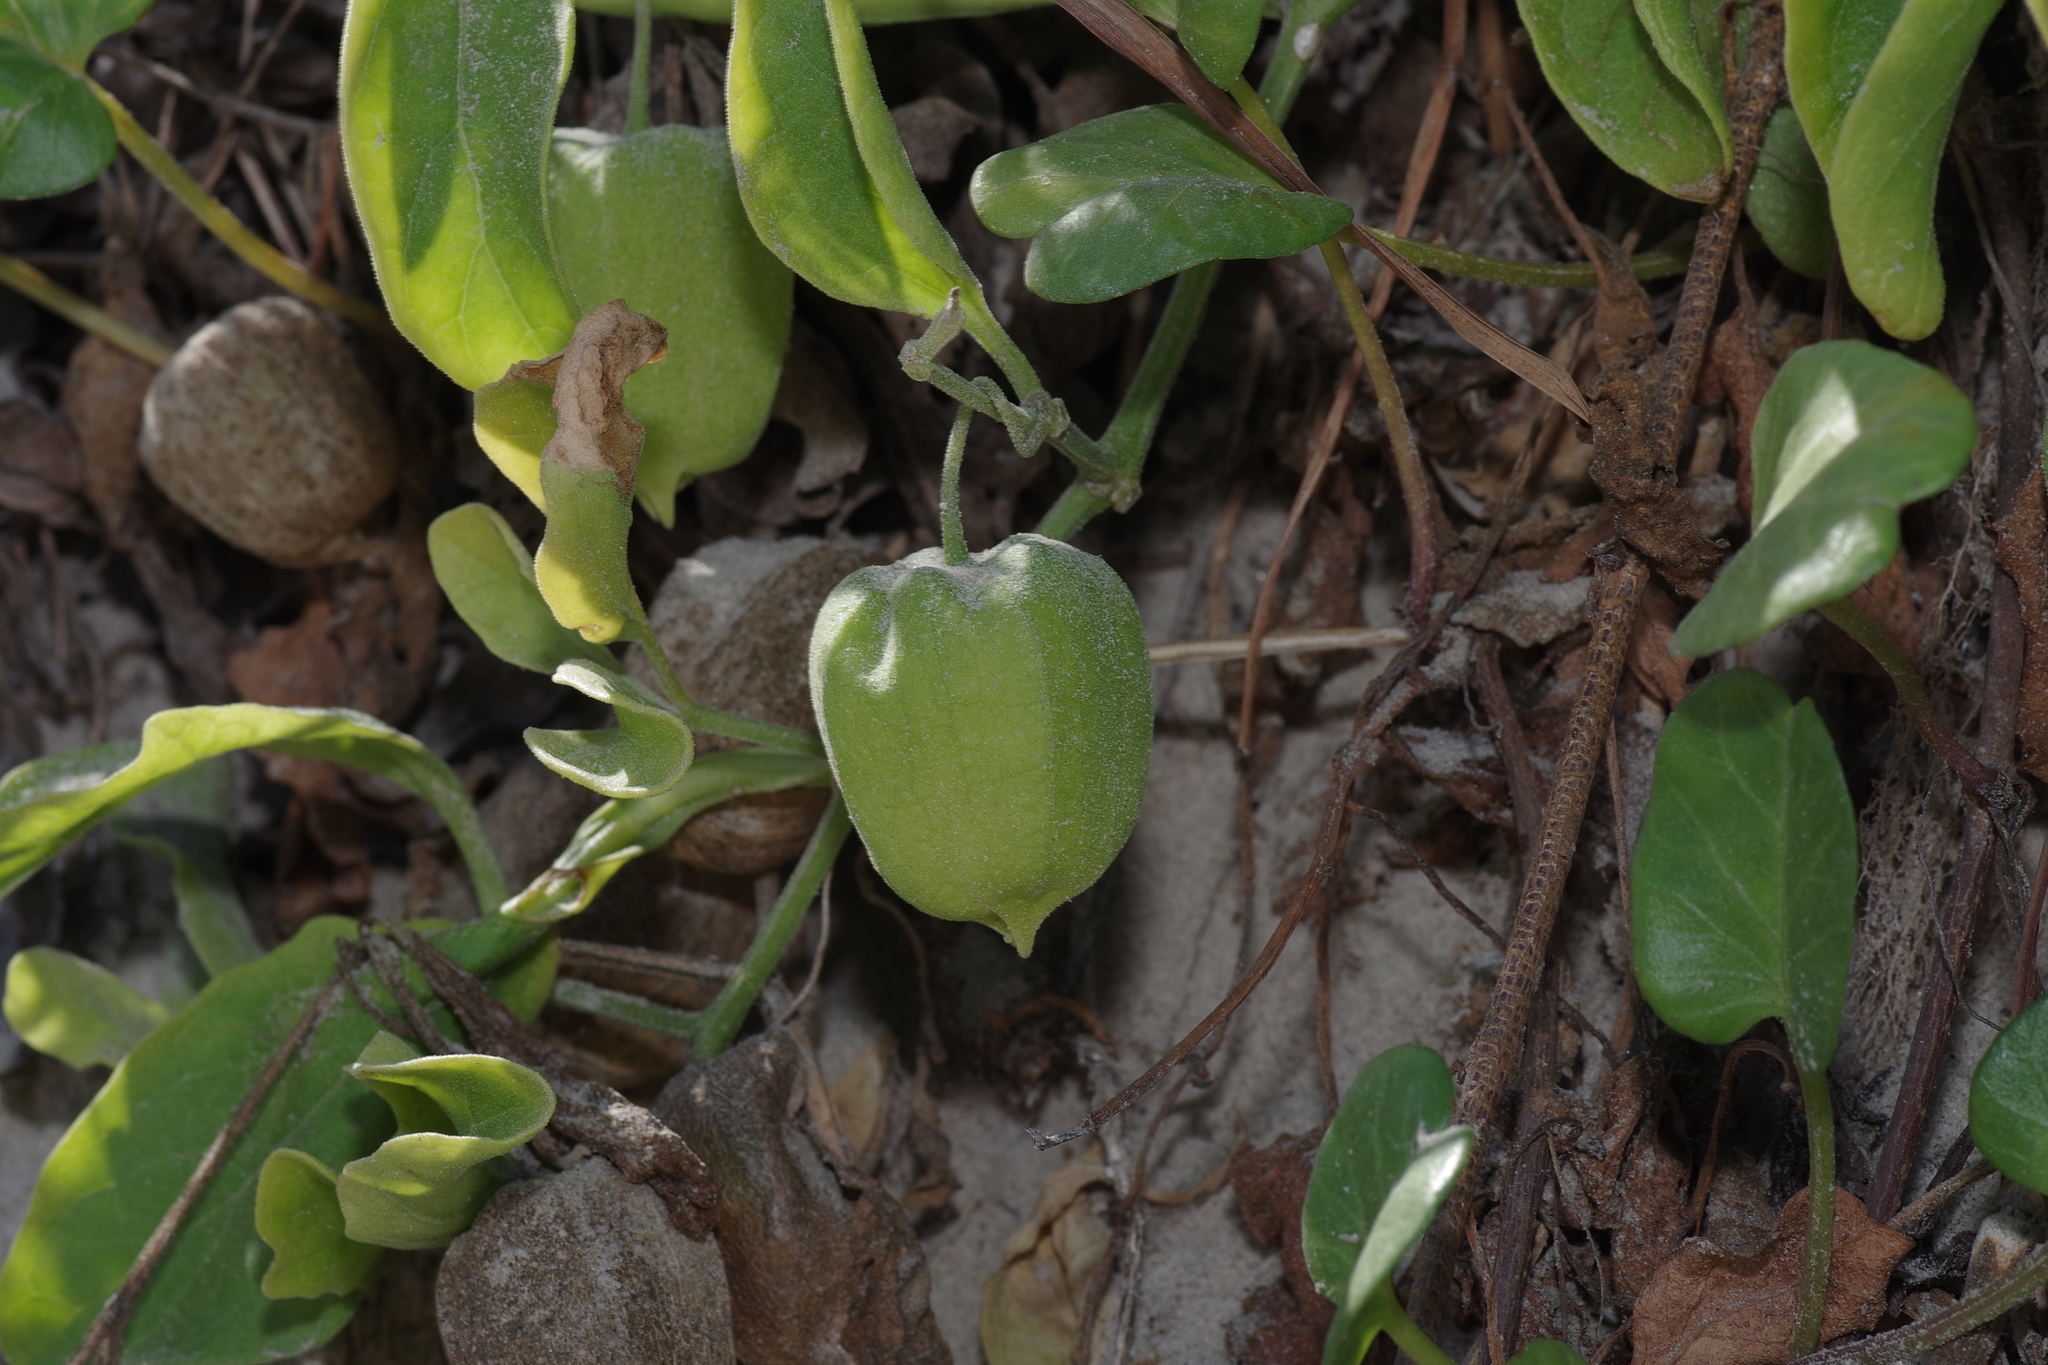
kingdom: Plantae
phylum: Tracheophyta
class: Magnoliopsida
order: Solanales
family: Convolvulaceae
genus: Ipomoea
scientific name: Ipomoea imperati
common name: Fiddle-leaf morning-glory
